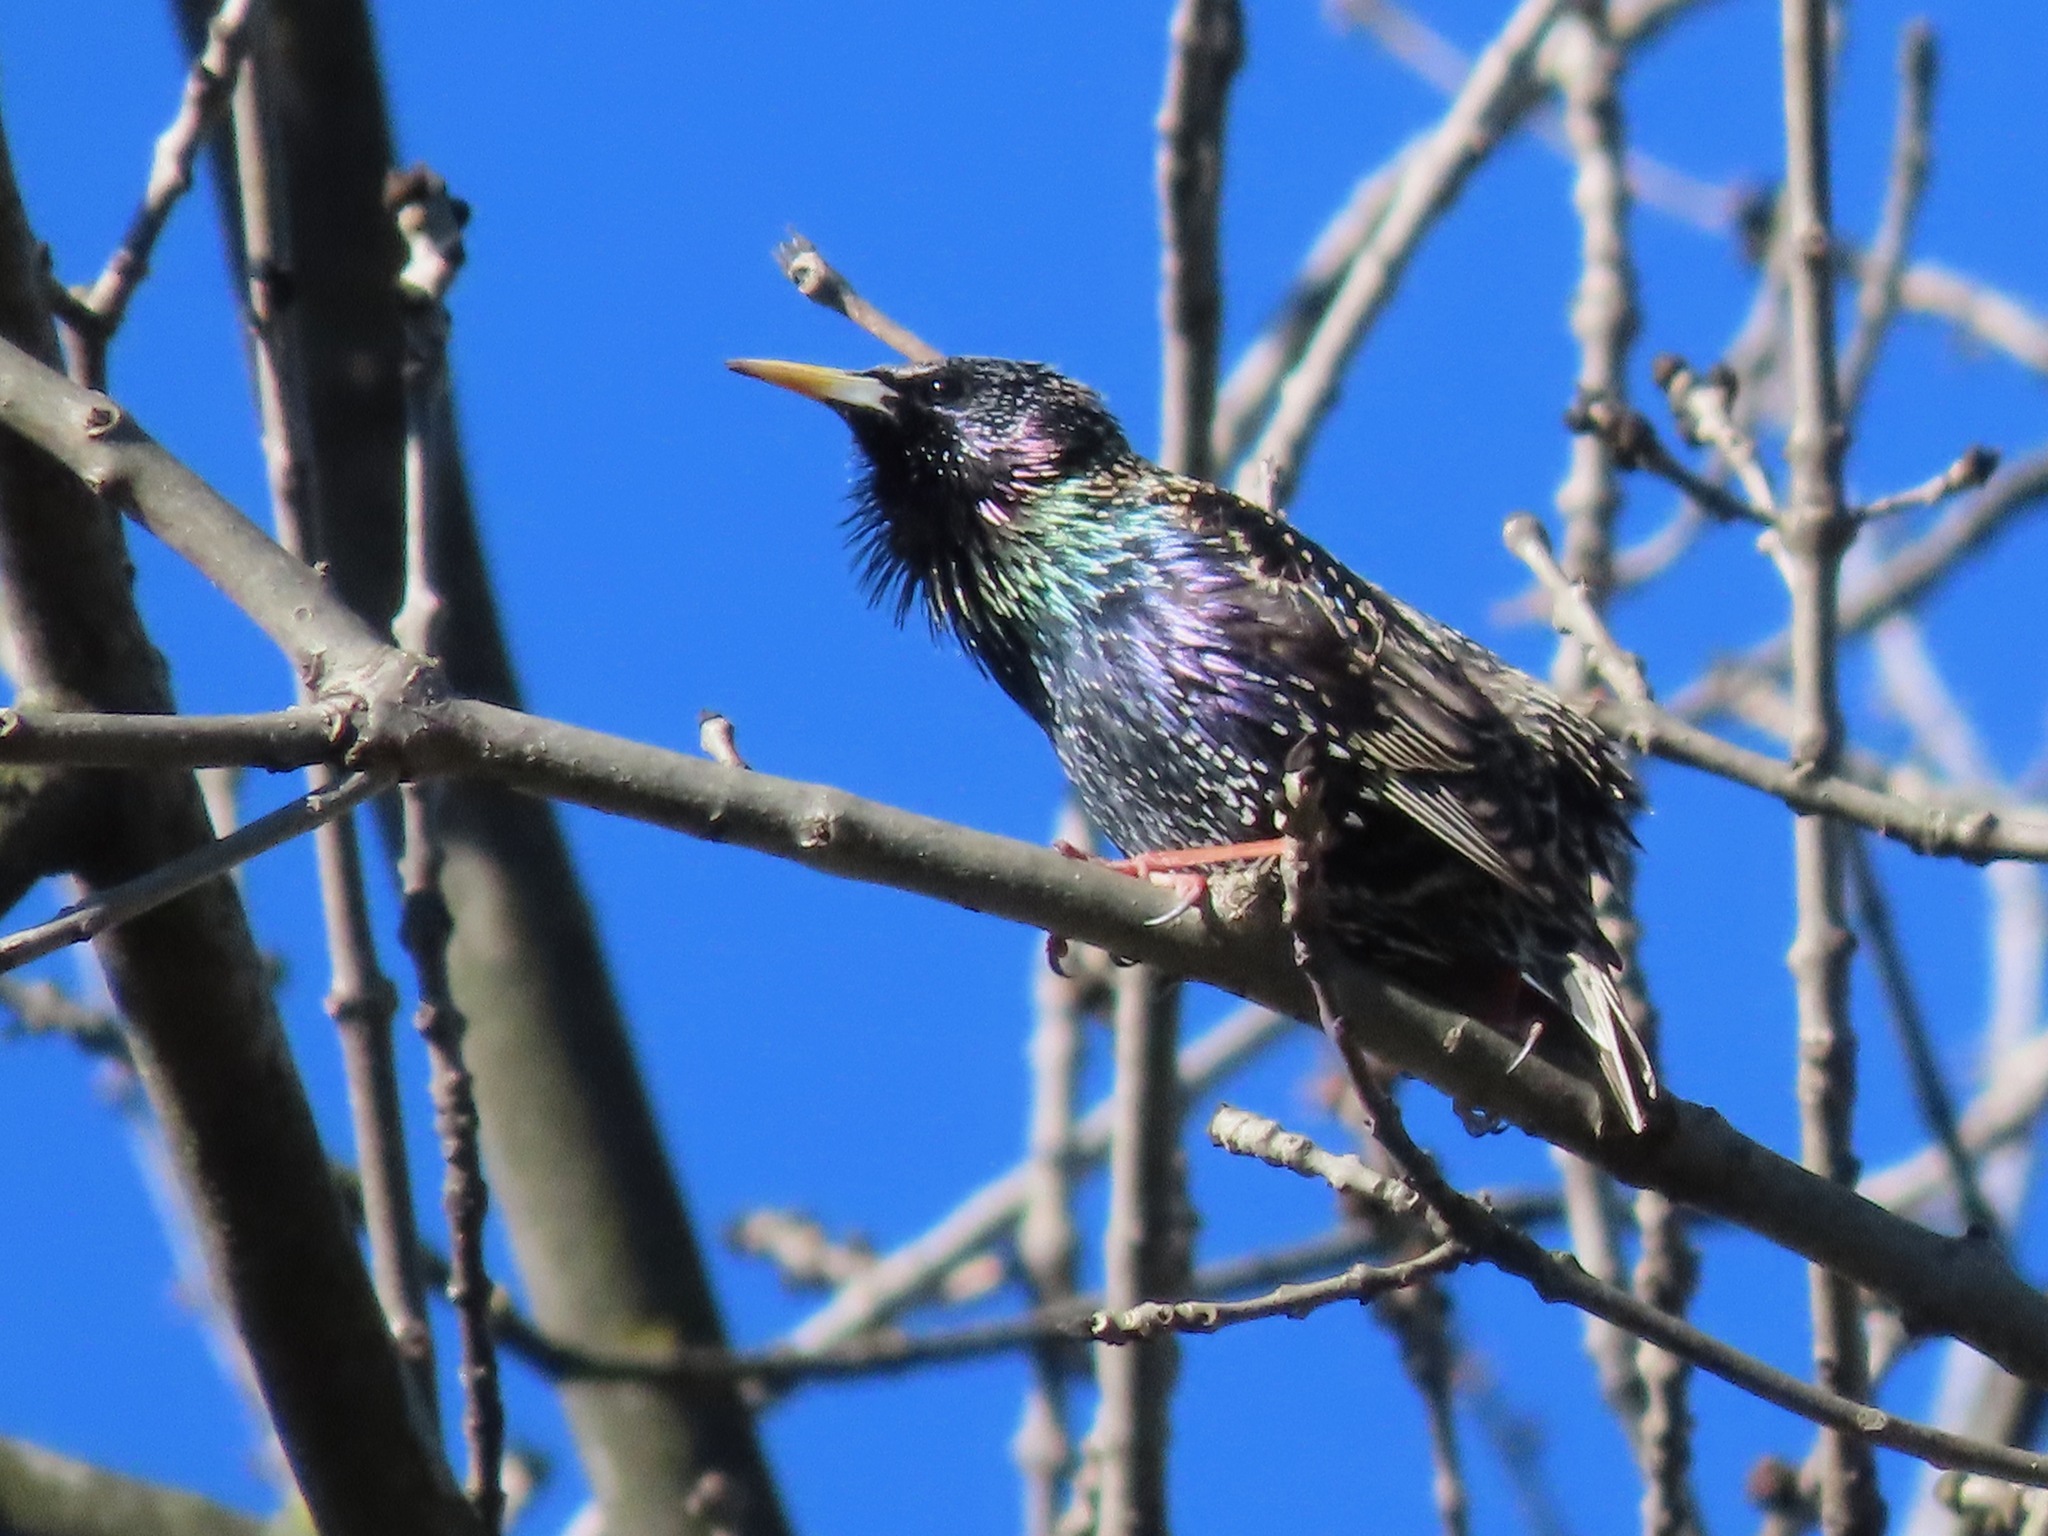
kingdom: Animalia
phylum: Chordata
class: Aves
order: Passeriformes
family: Sturnidae
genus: Sturnus
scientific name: Sturnus vulgaris
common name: Common starling
